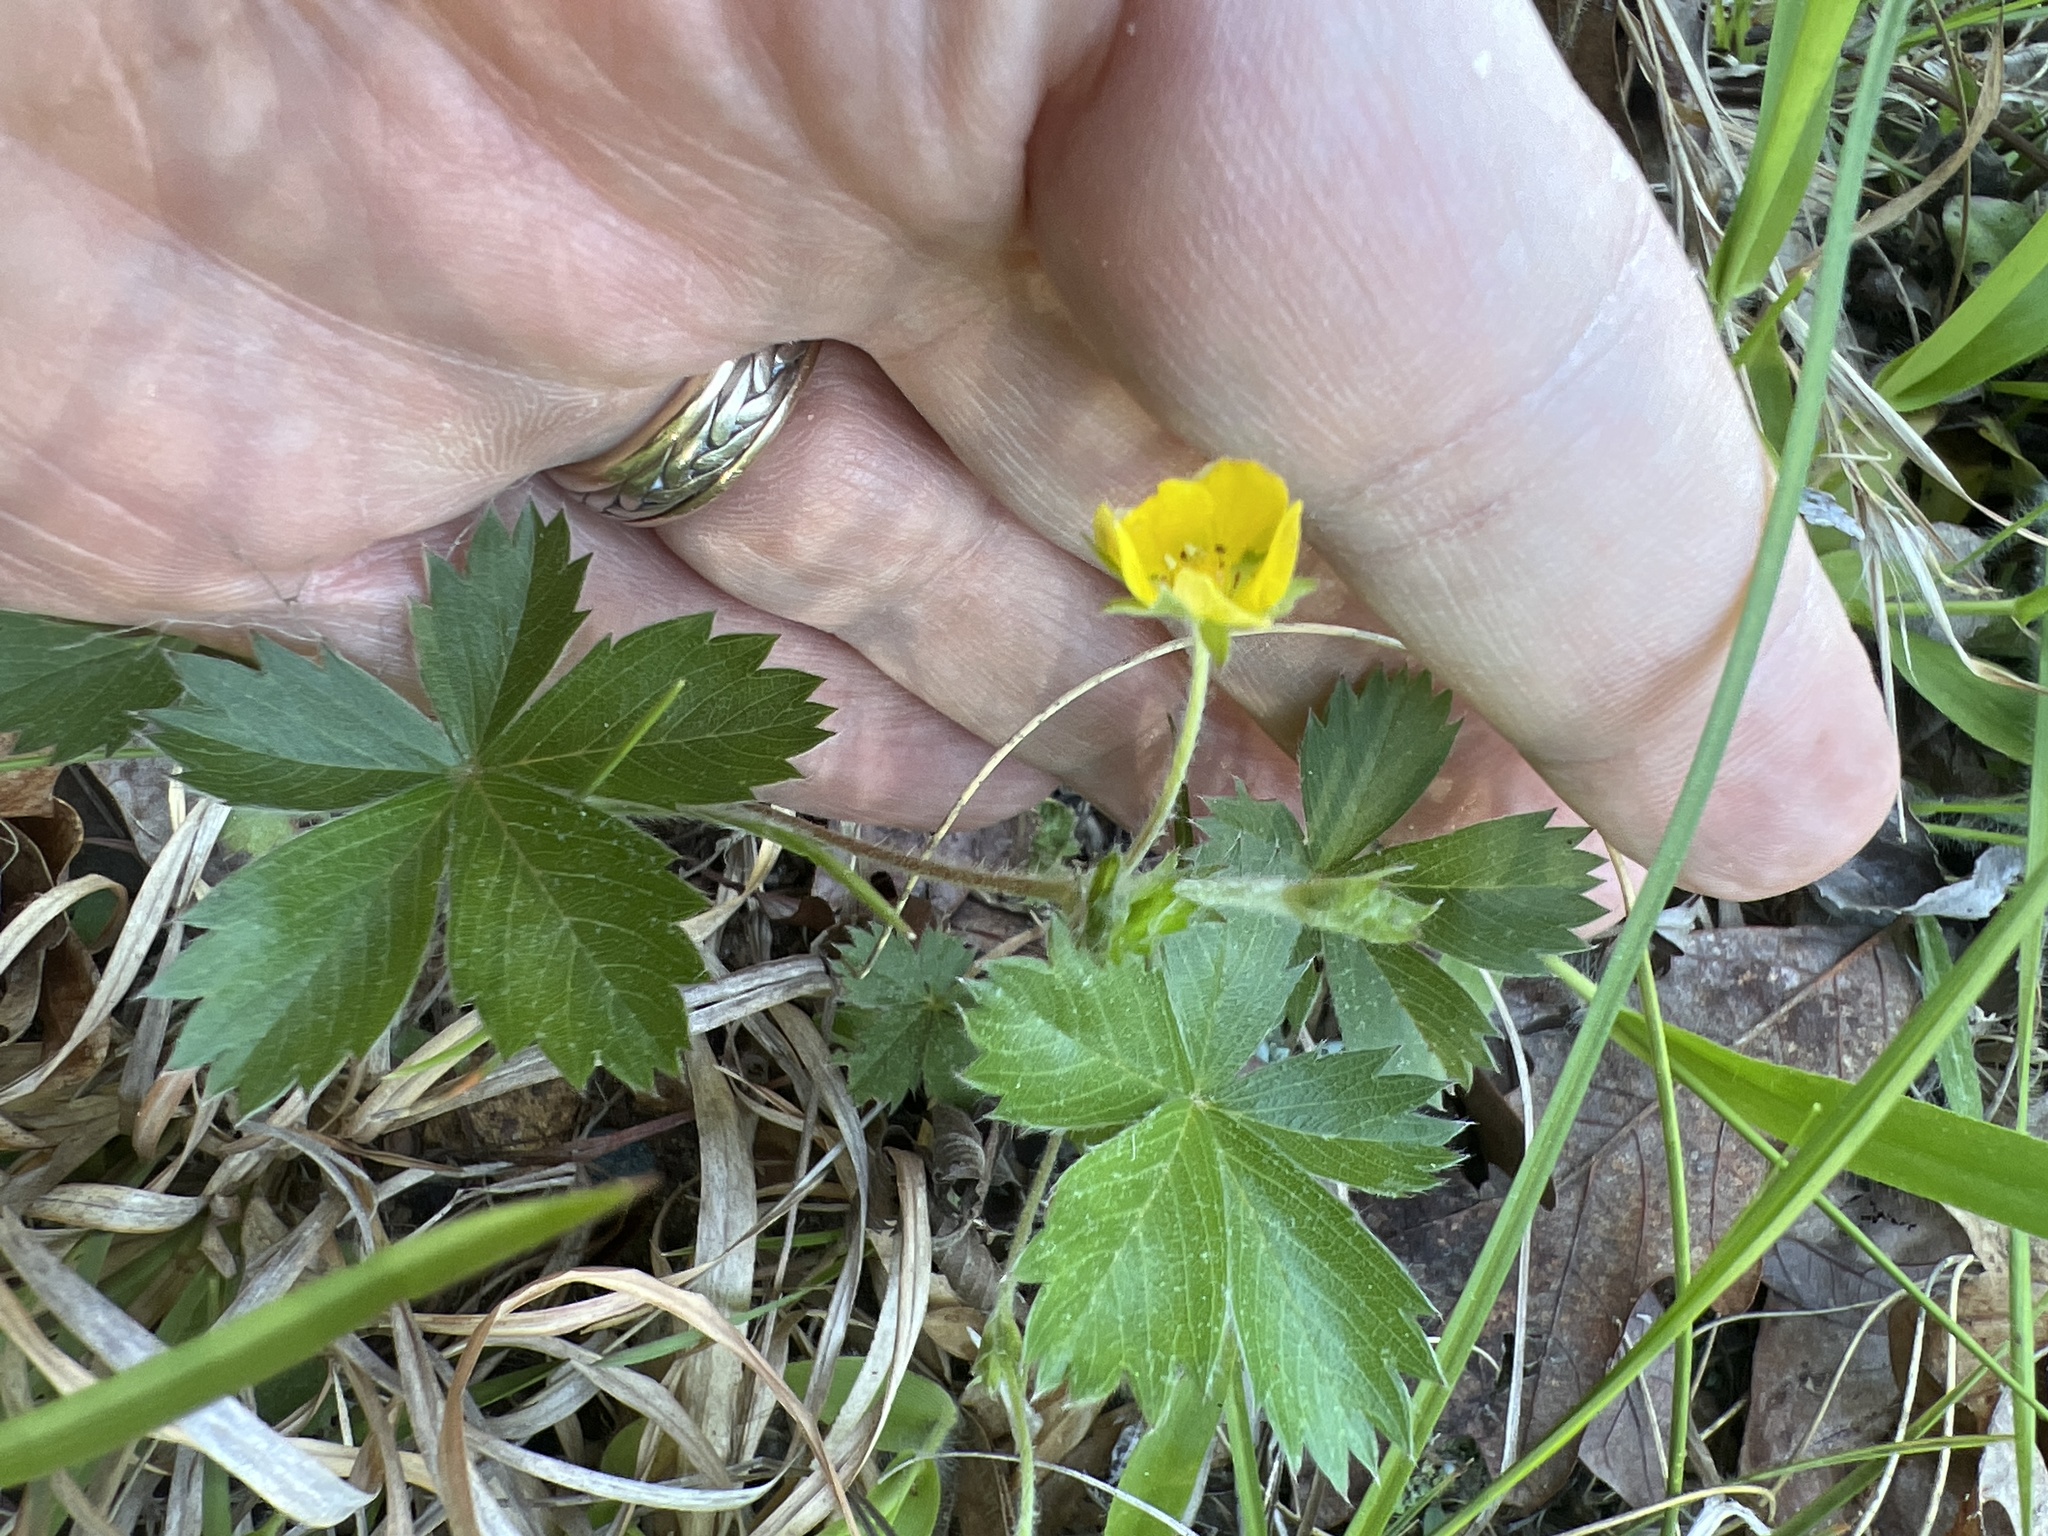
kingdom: Plantae
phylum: Tracheophyta
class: Magnoliopsida
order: Rosales
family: Rosaceae
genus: Potentilla
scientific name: Potentilla canadensis
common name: Canada cinquefoil
